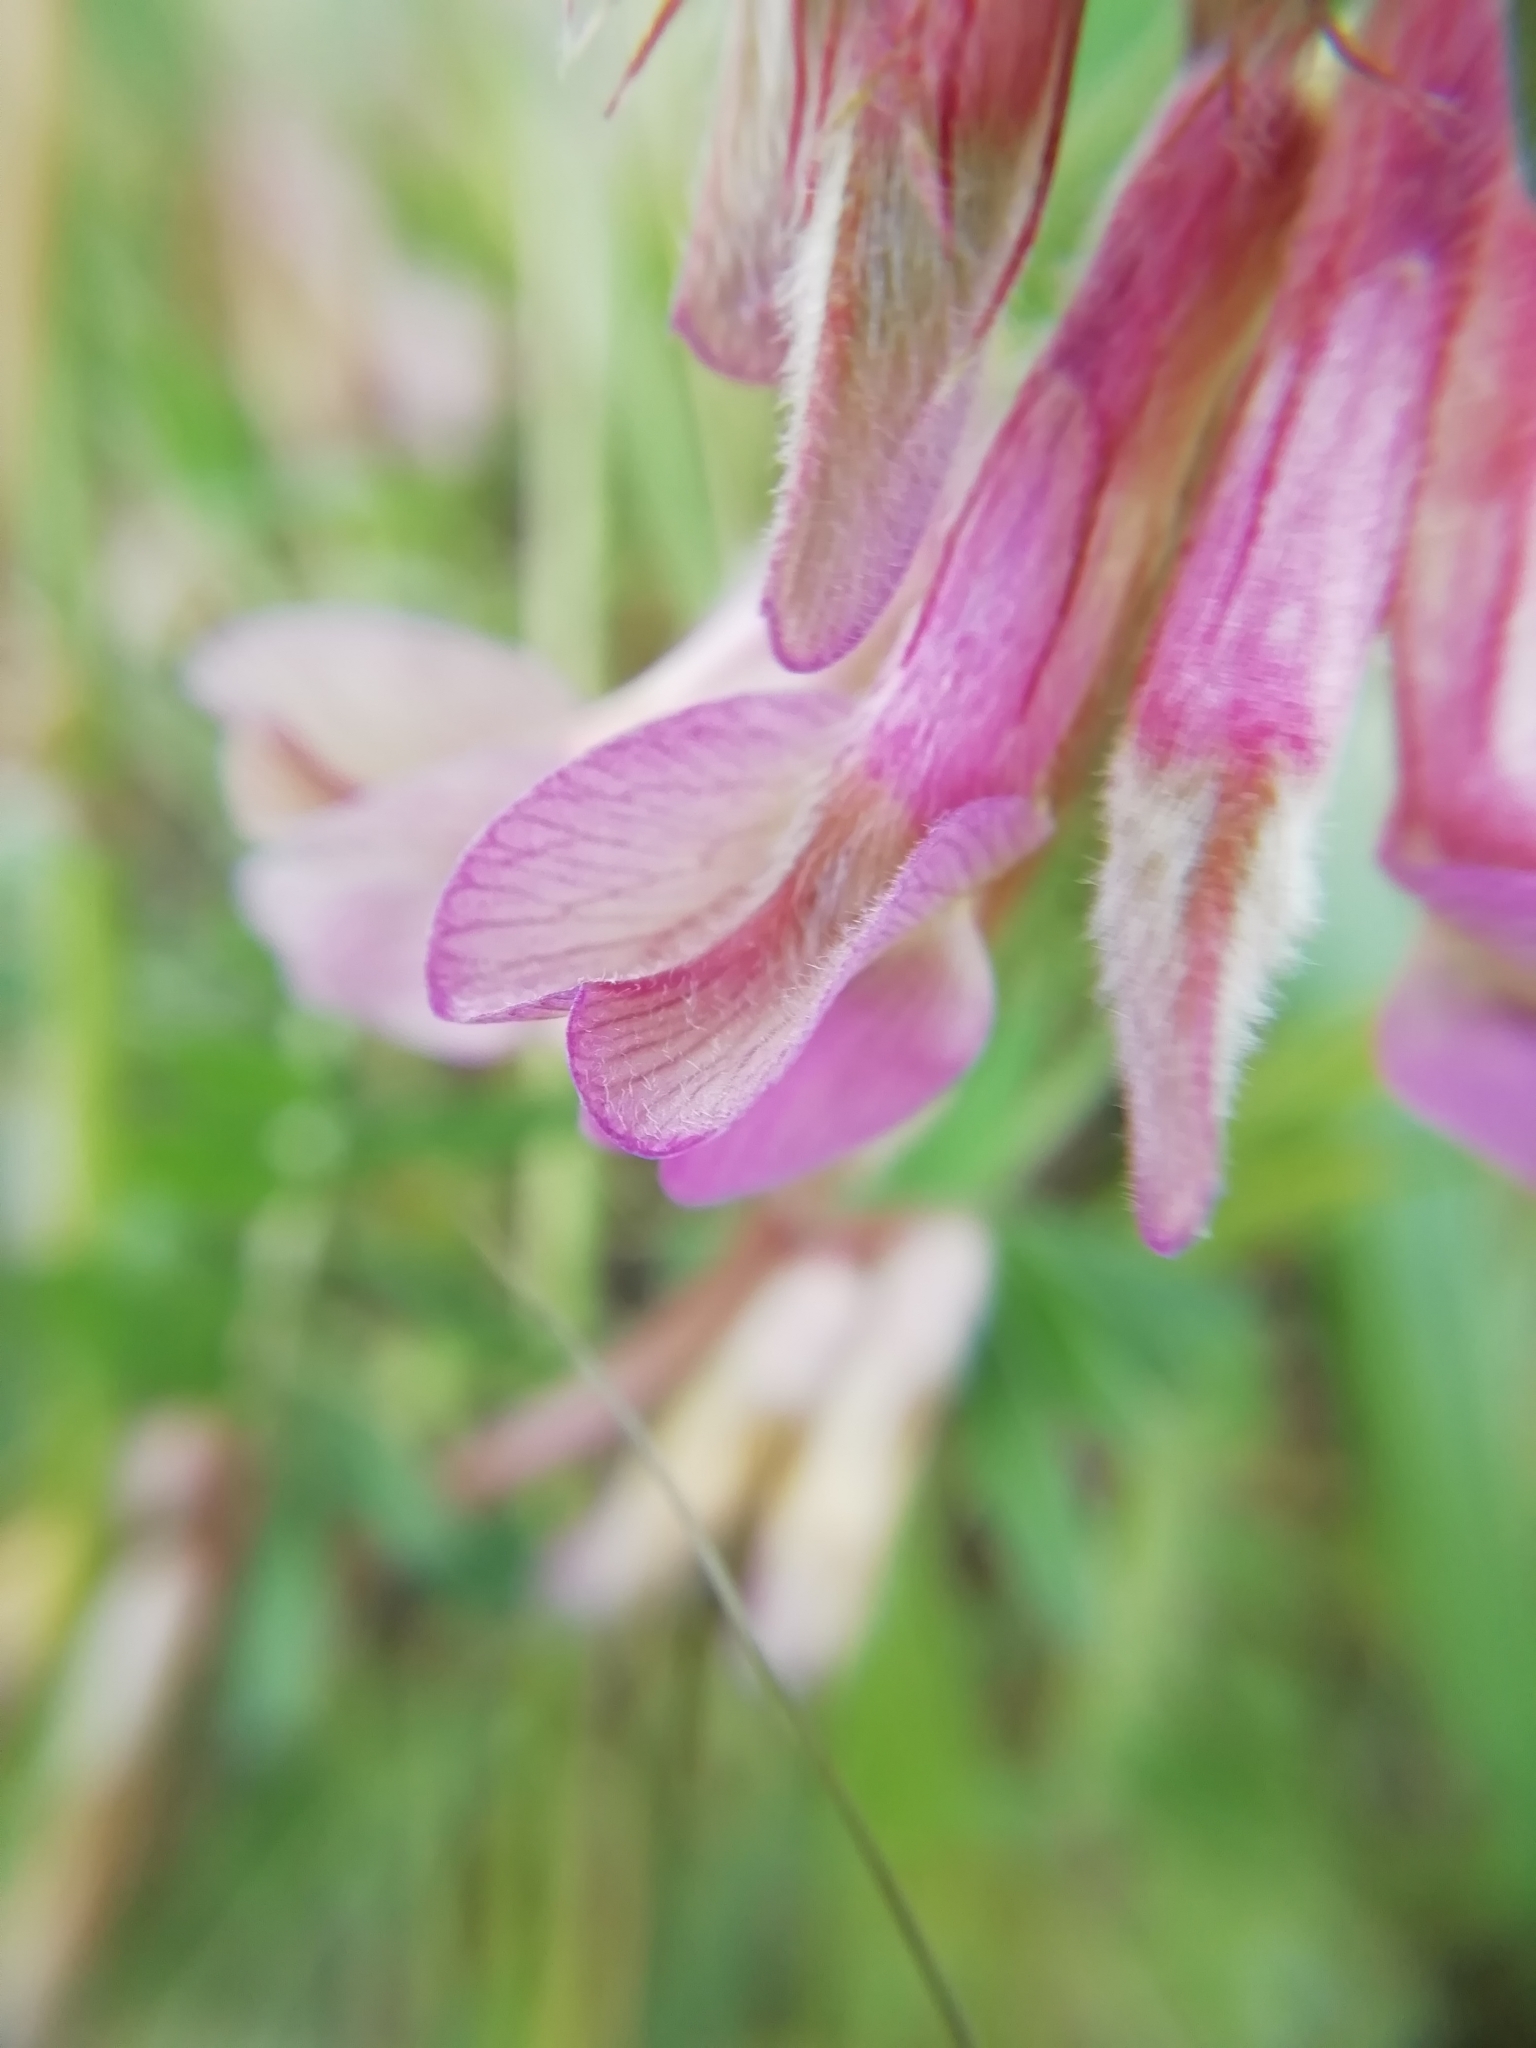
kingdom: Plantae
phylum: Tracheophyta
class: Magnoliopsida
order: Fabales
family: Fabaceae
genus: Vicia
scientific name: Vicia pannonica
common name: Hungarian vetch
